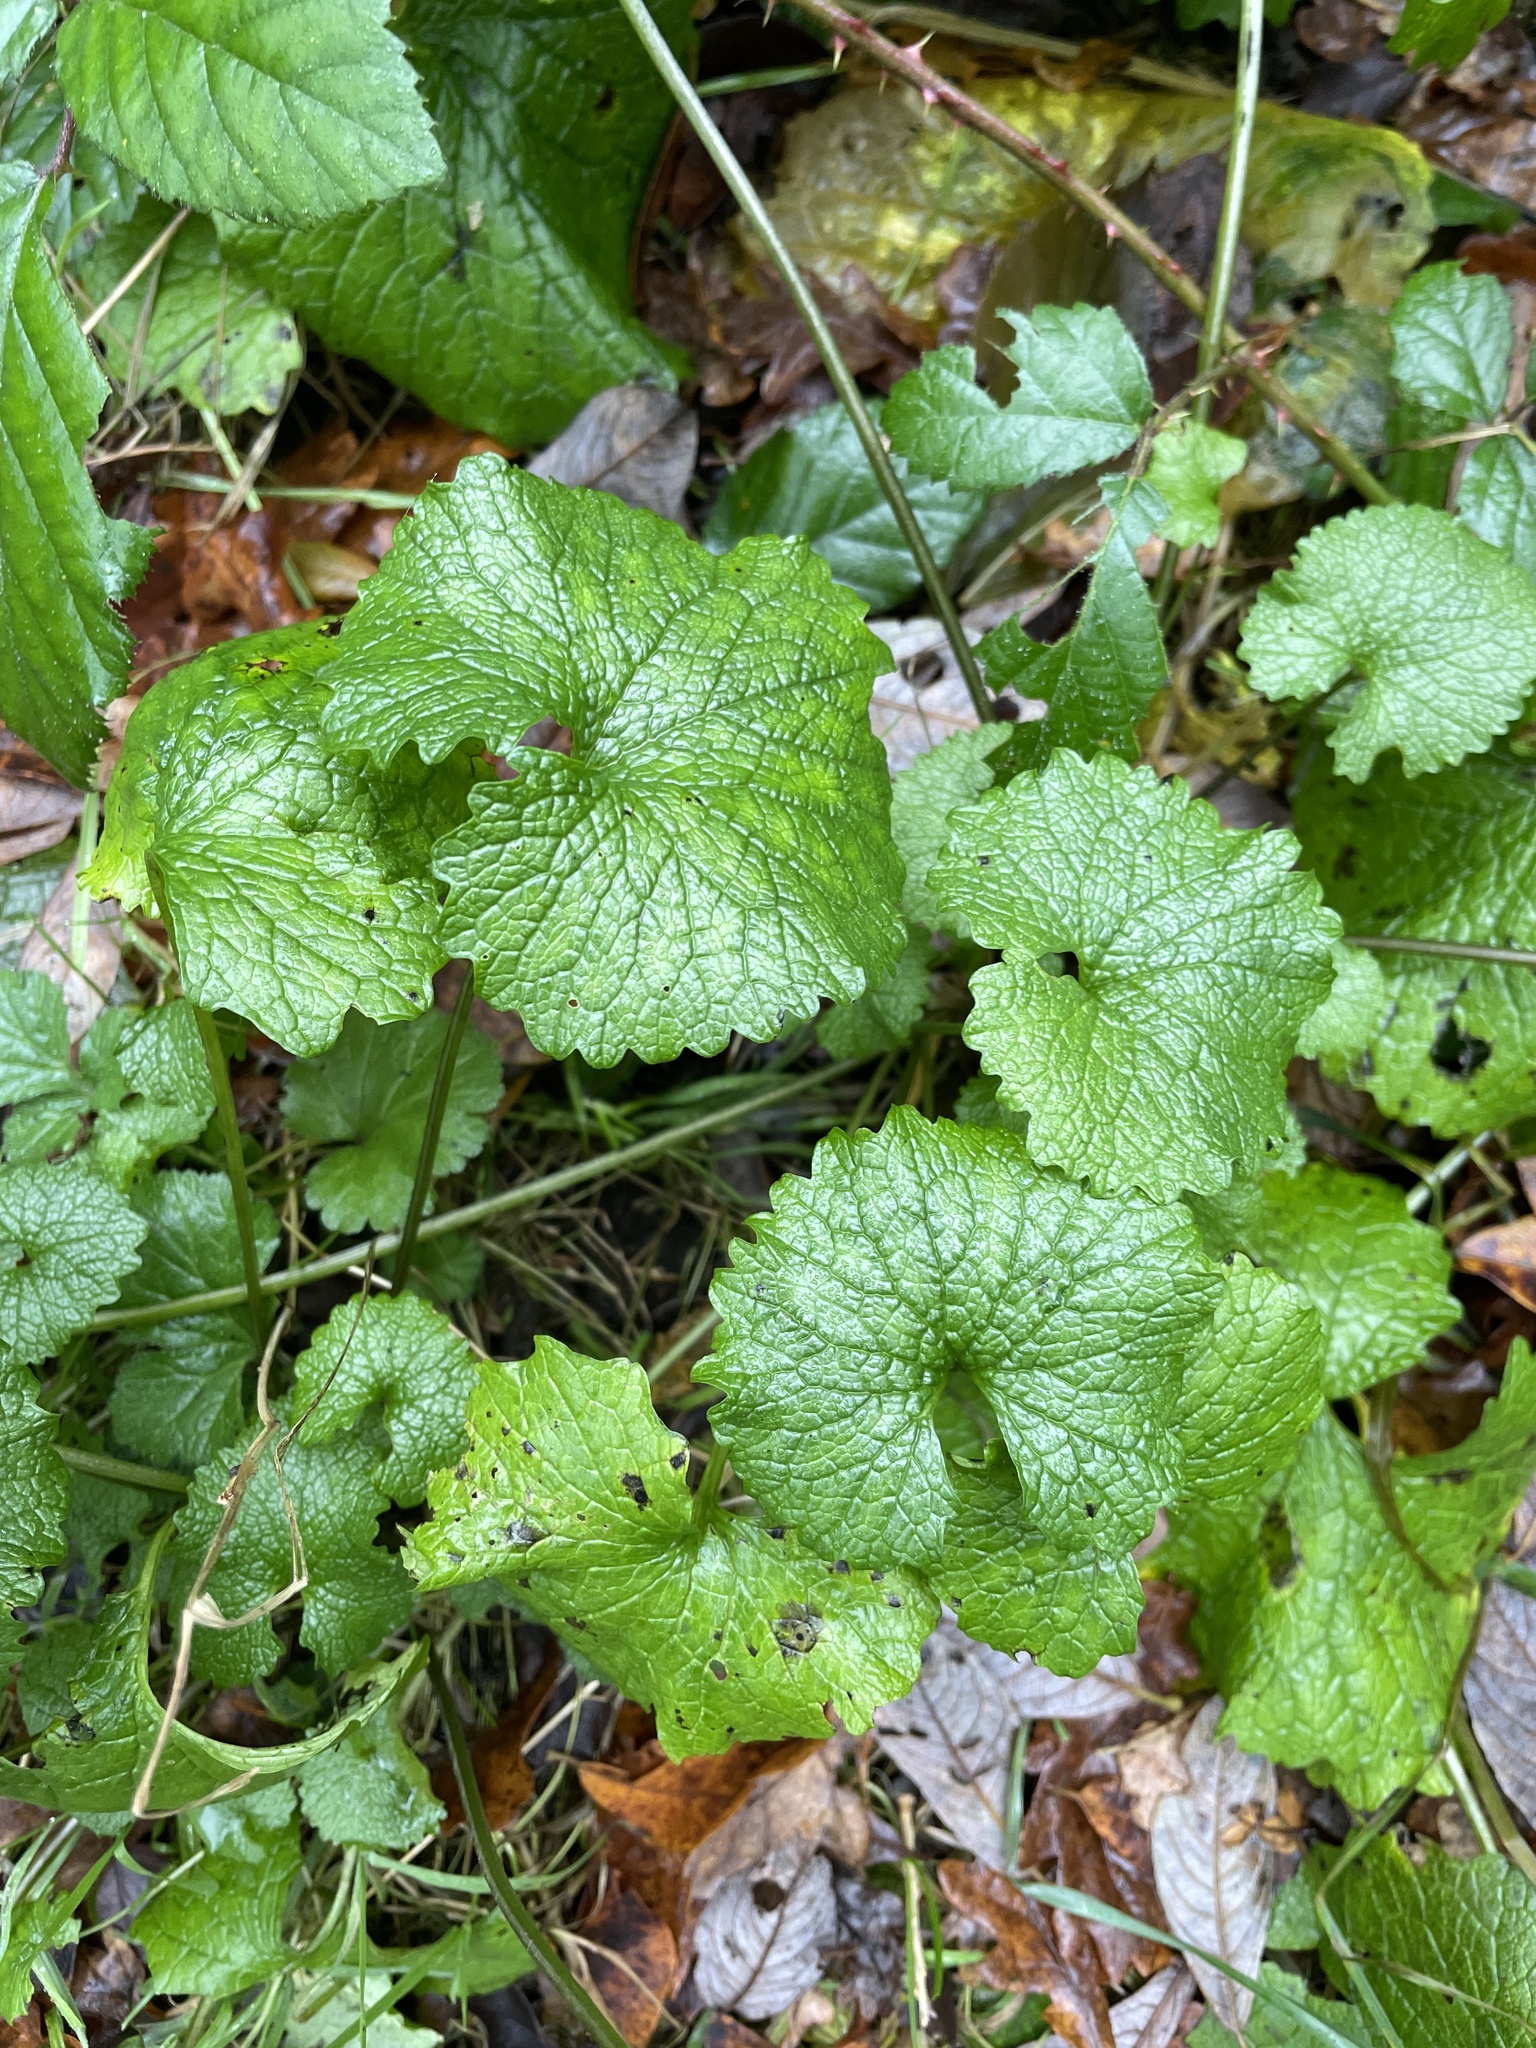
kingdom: Plantae
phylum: Tracheophyta
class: Magnoliopsida
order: Brassicales
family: Brassicaceae
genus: Alliaria
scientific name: Alliaria petiolata
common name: Garlic mustard
